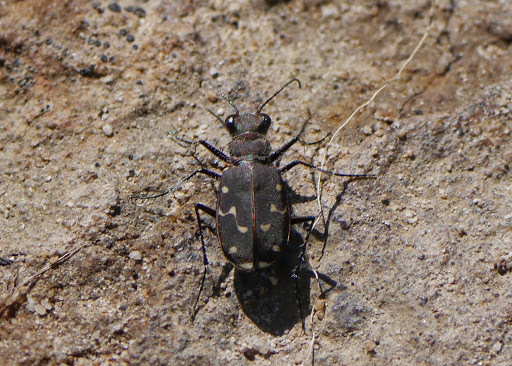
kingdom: Animalia
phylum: Arthropoda
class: Insecta
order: Coleoptera
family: Carabidae
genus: Cicindela
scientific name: Cicindela duodecimguttata
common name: Twelve-spotted tiger beetle
